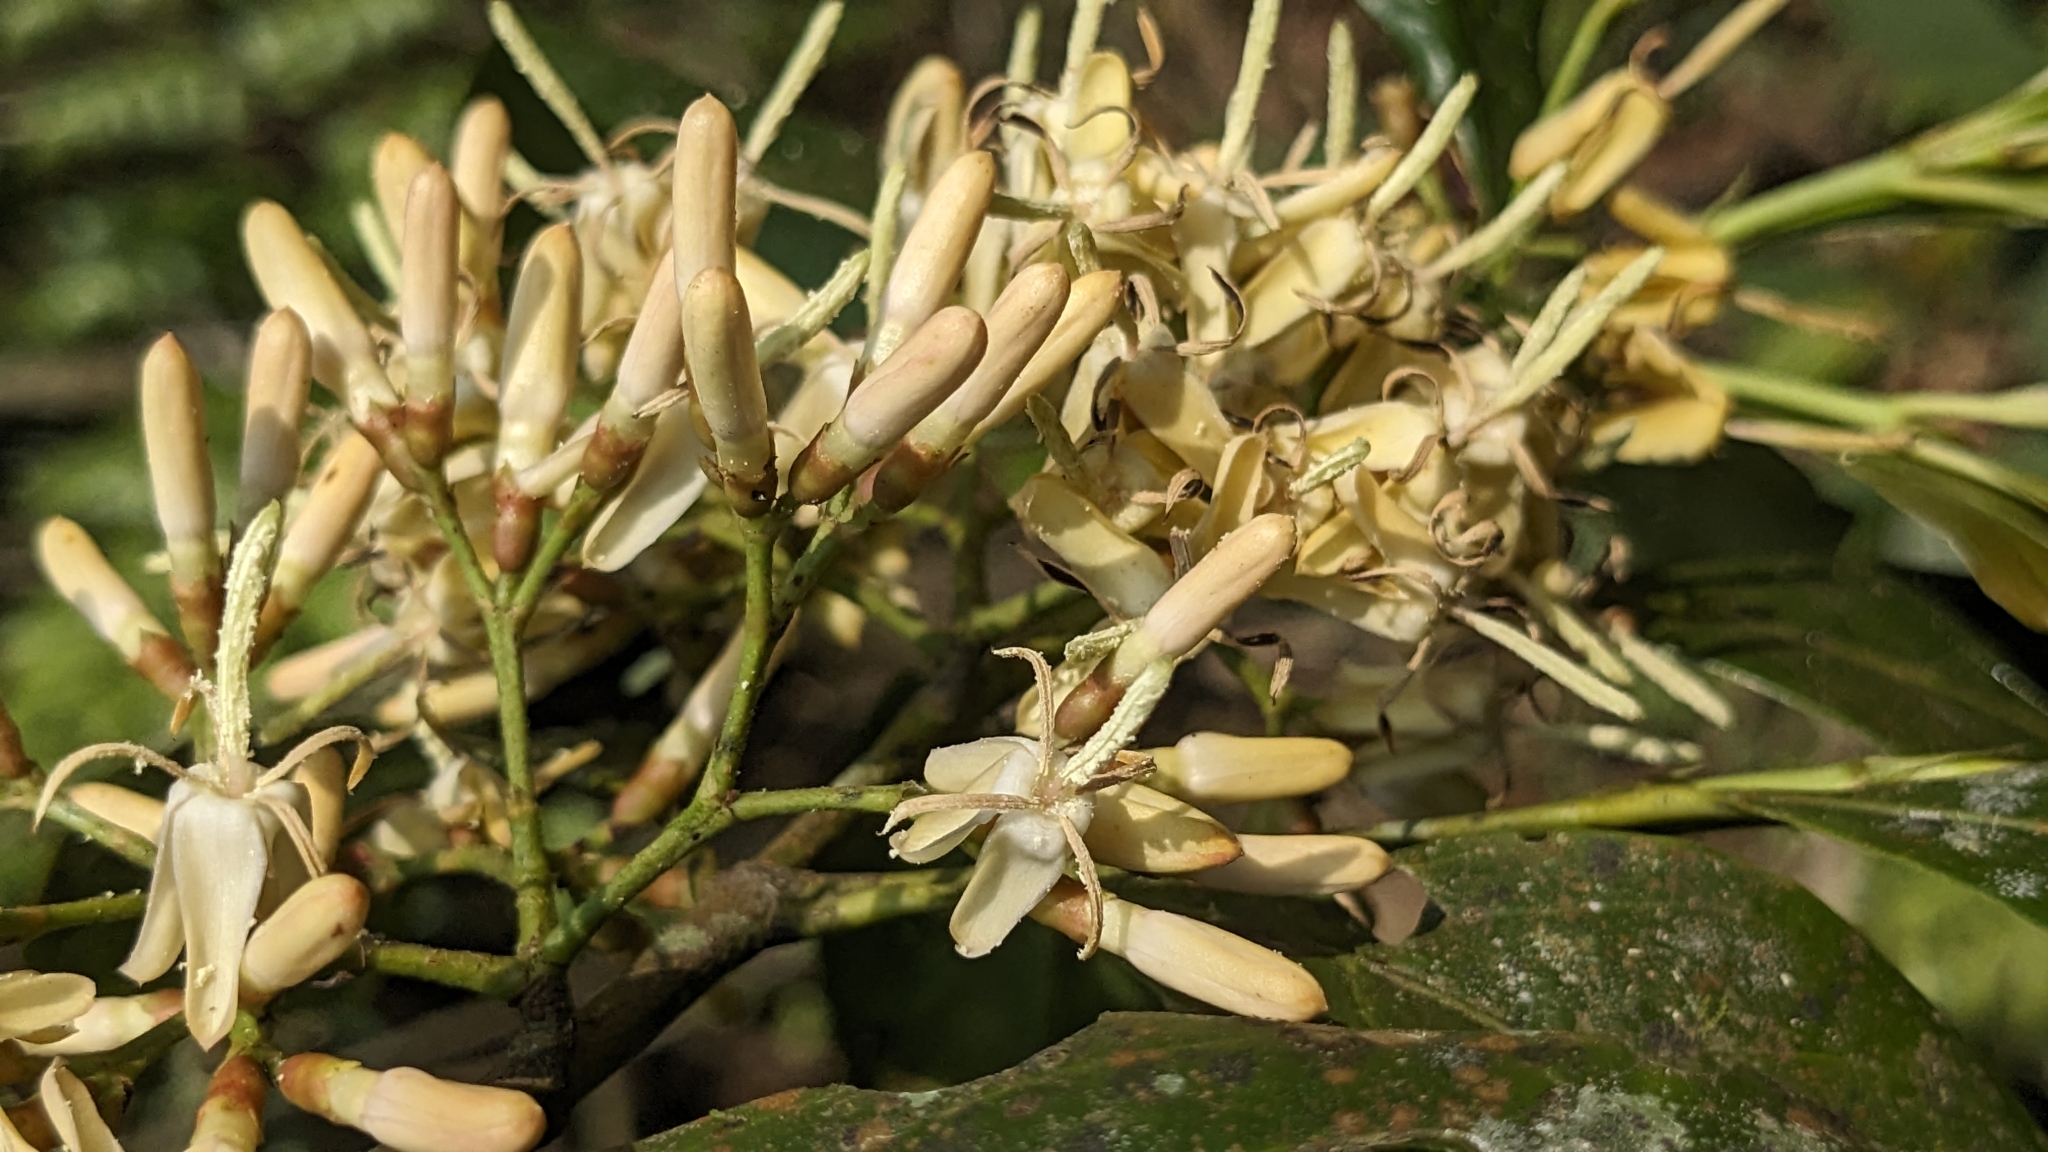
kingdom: Plantae
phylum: Tracheophyta
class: Magnoliopsida
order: Gentianales
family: Rubiaceae
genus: Aidia
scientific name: Aidia cochinchinensis
